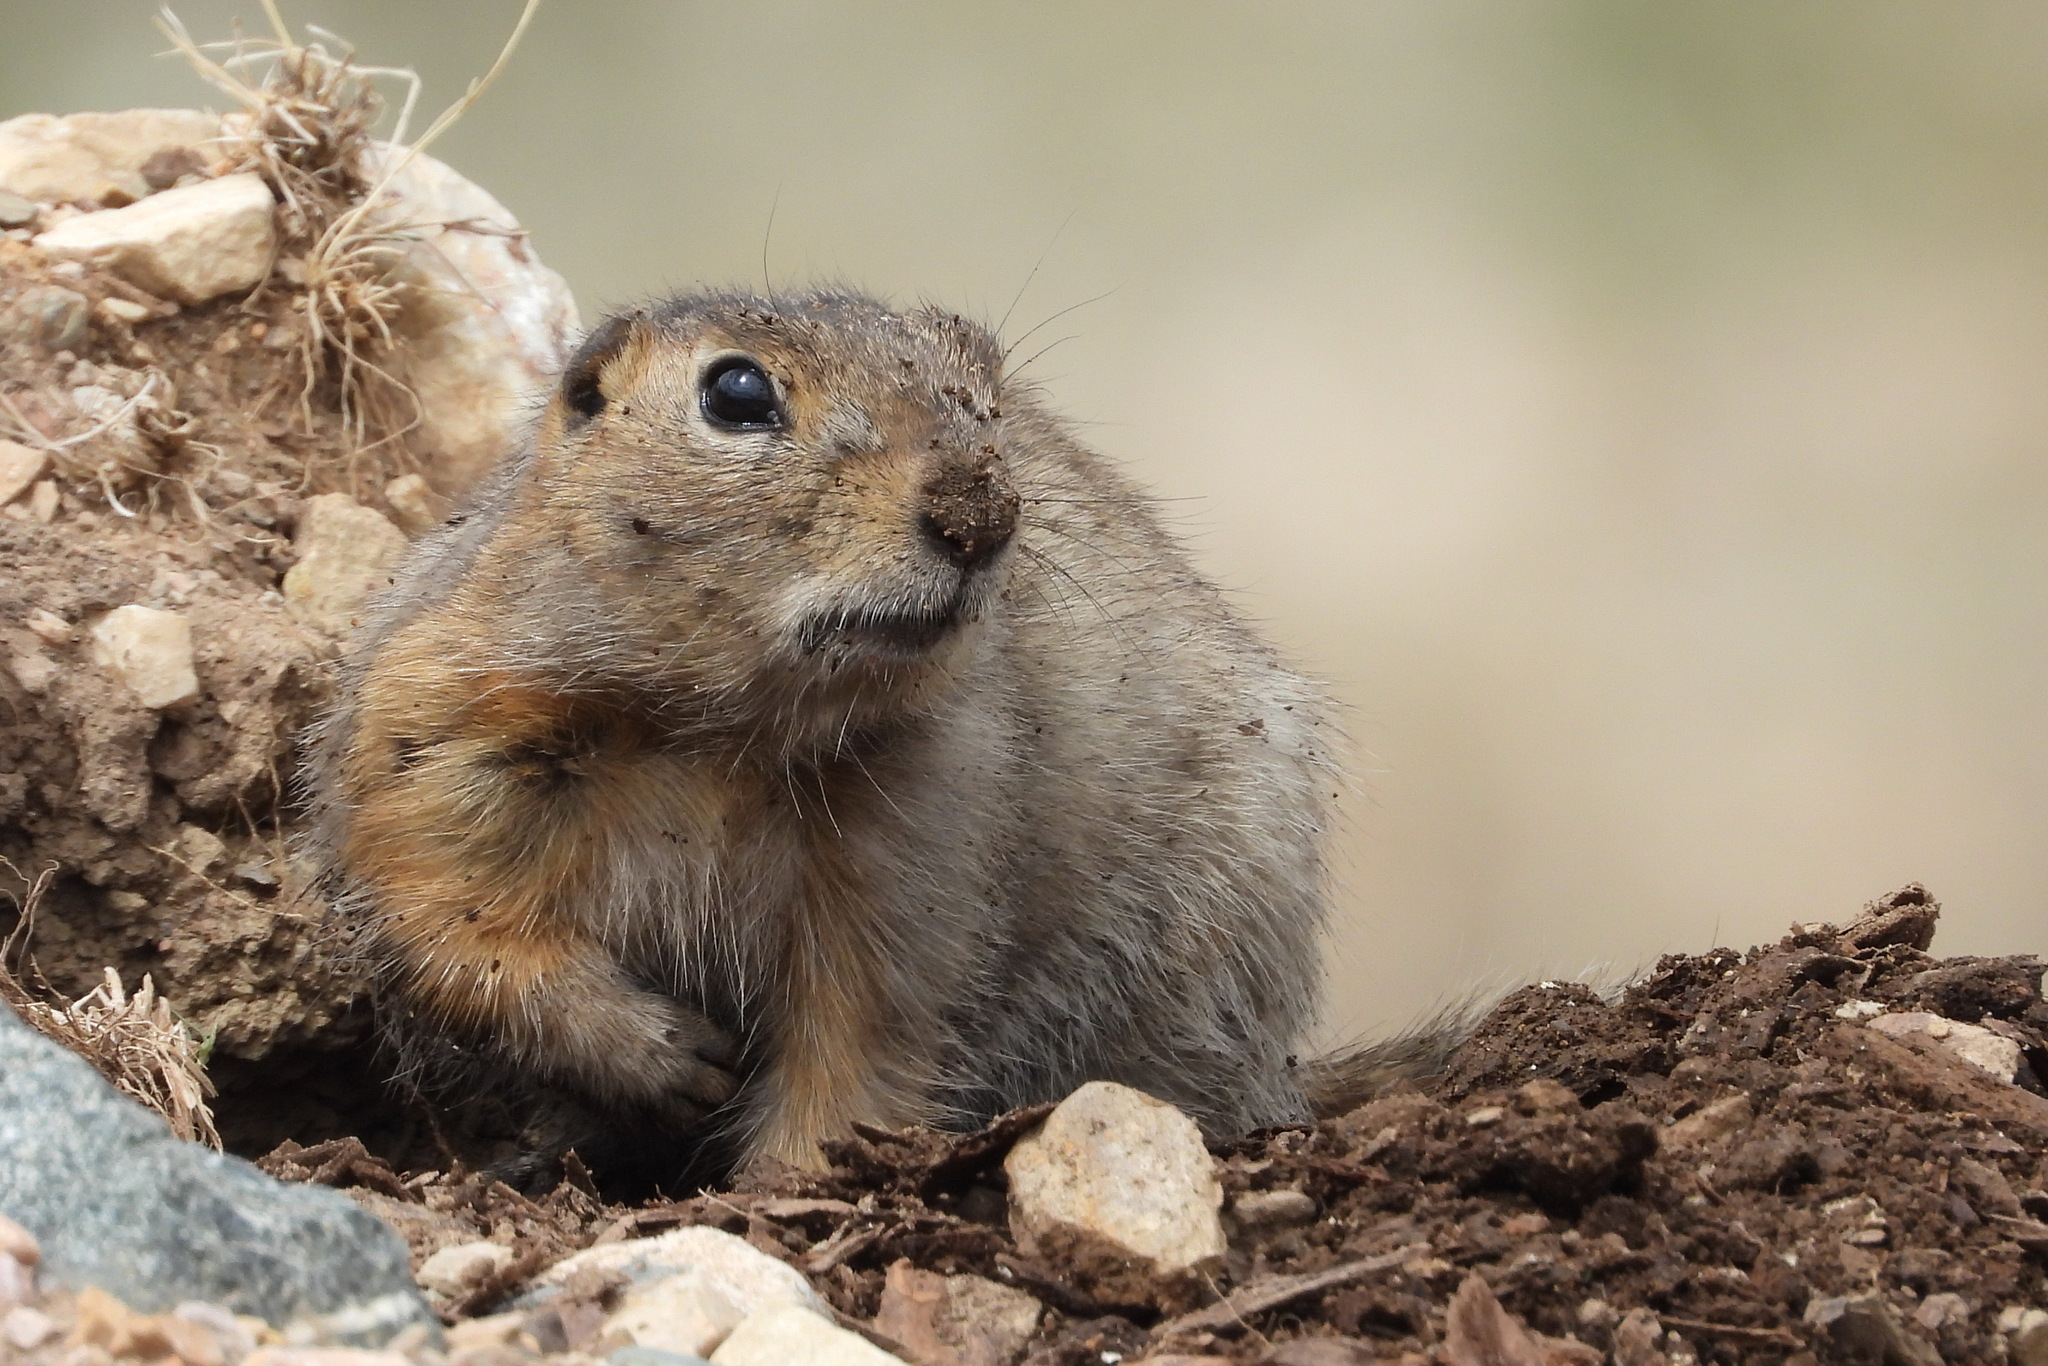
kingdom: Animalia
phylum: Chordata
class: Mammalia
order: Rodentia
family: Sciuridae
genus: Urocitellus
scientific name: Urocitellus undulatus
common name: Long-tailed ground squirrel
